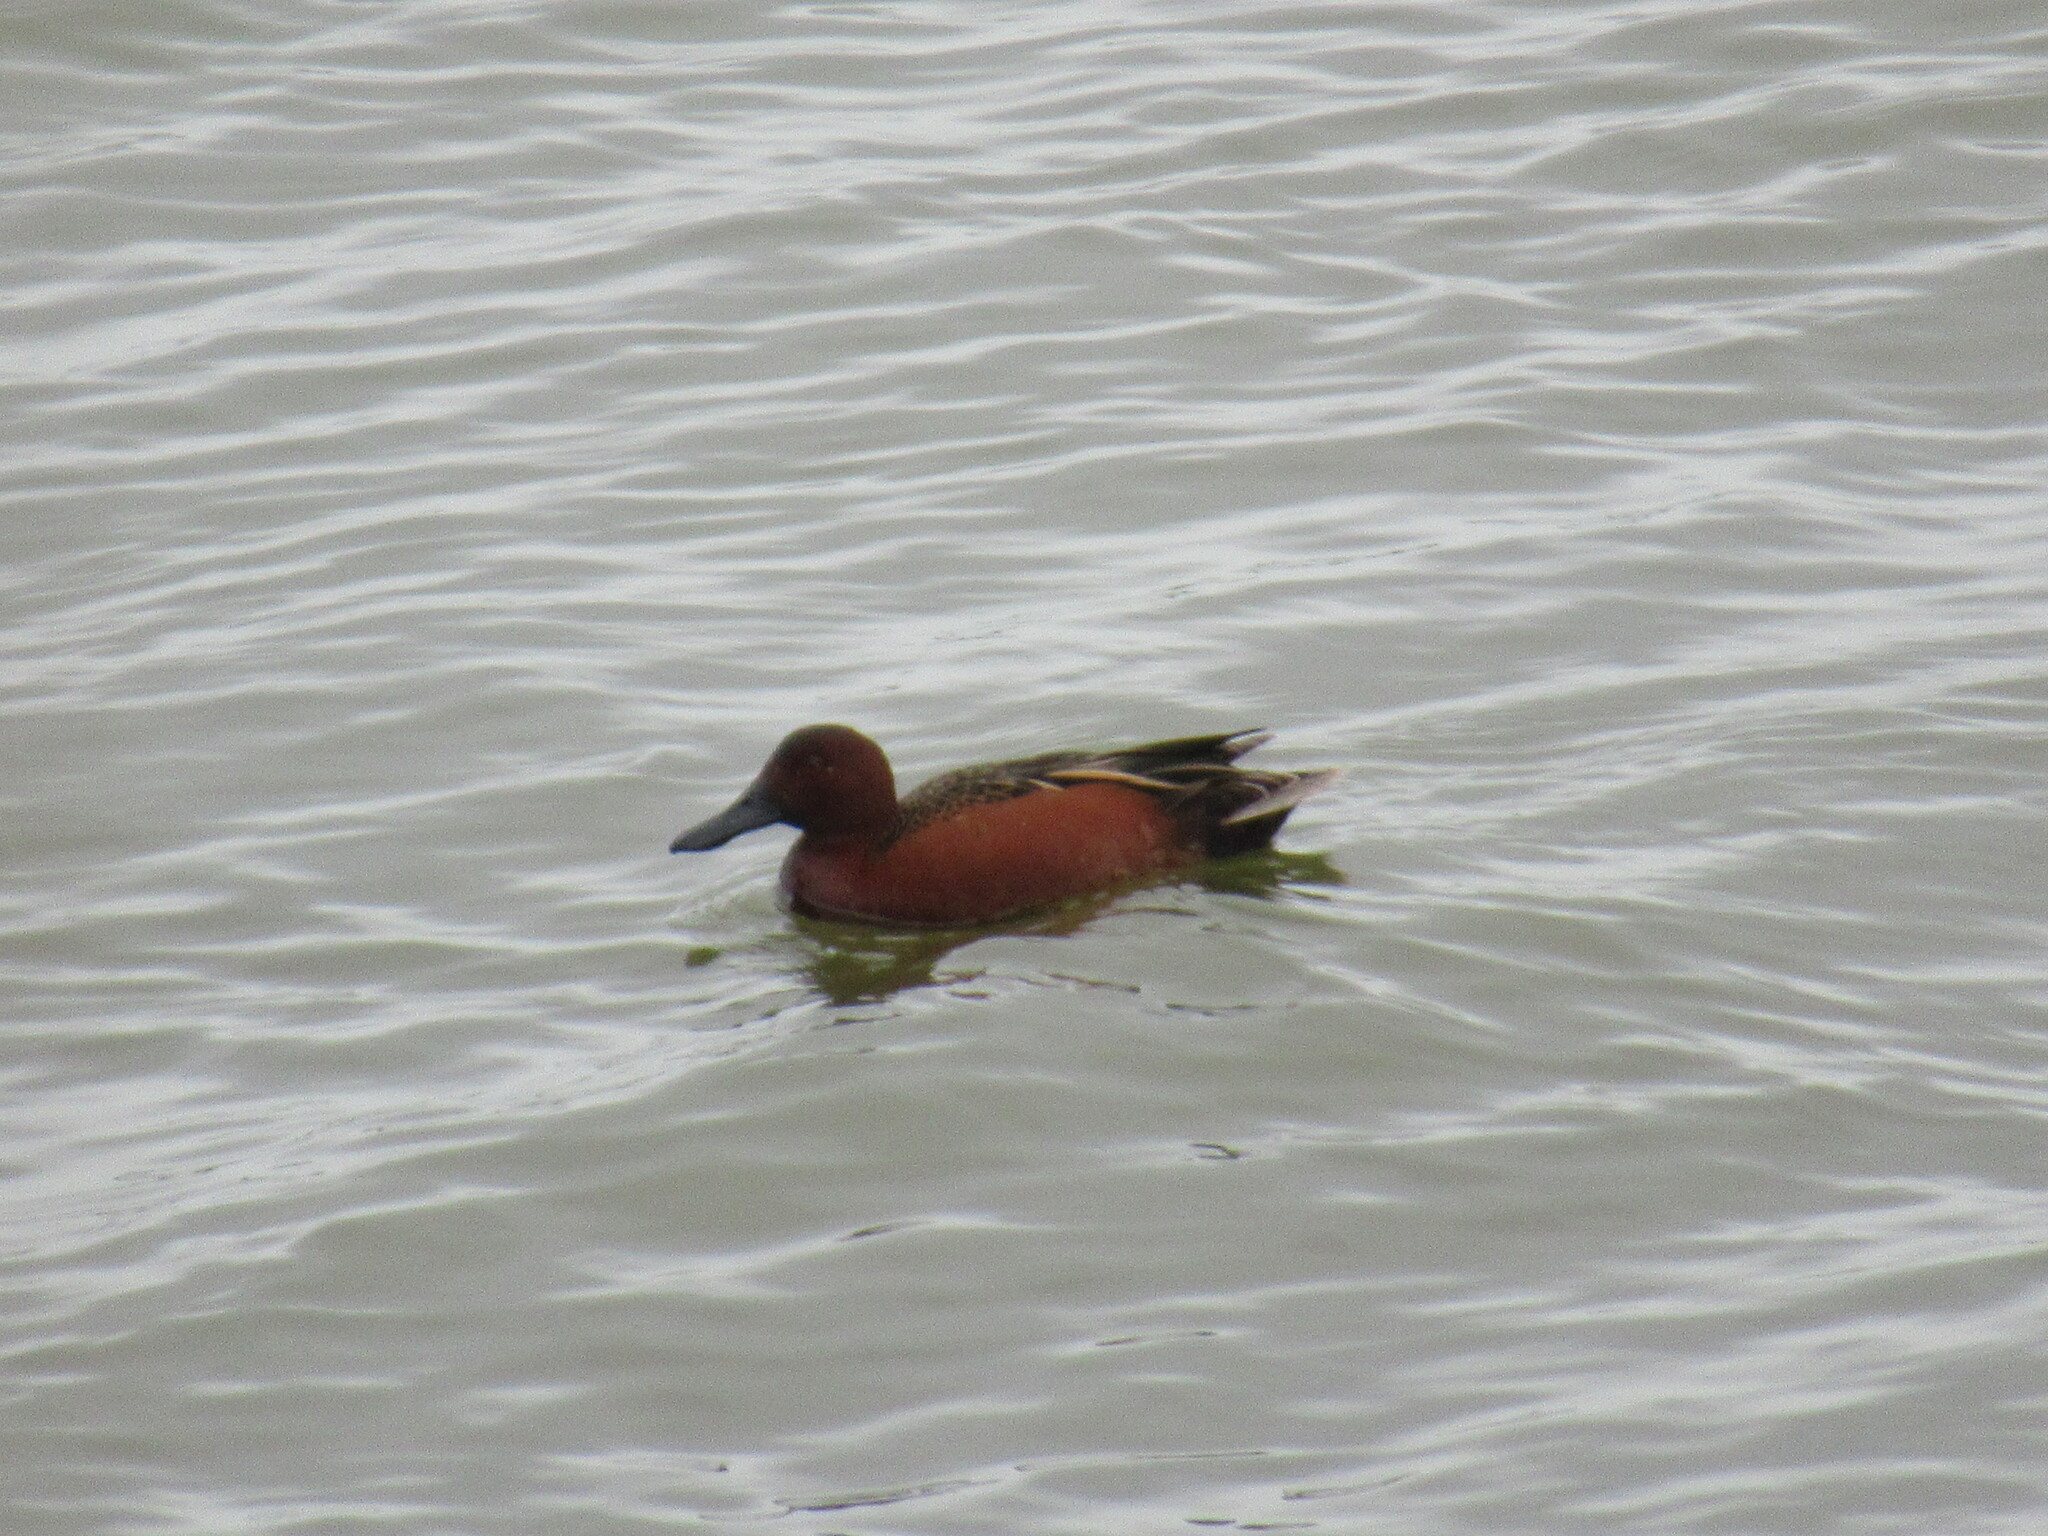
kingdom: Animalia
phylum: Chordata
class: Aves
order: Anseriformes
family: Anatidae
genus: Spatula
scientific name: Spatula cyanoptera
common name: Cinnamon teal
